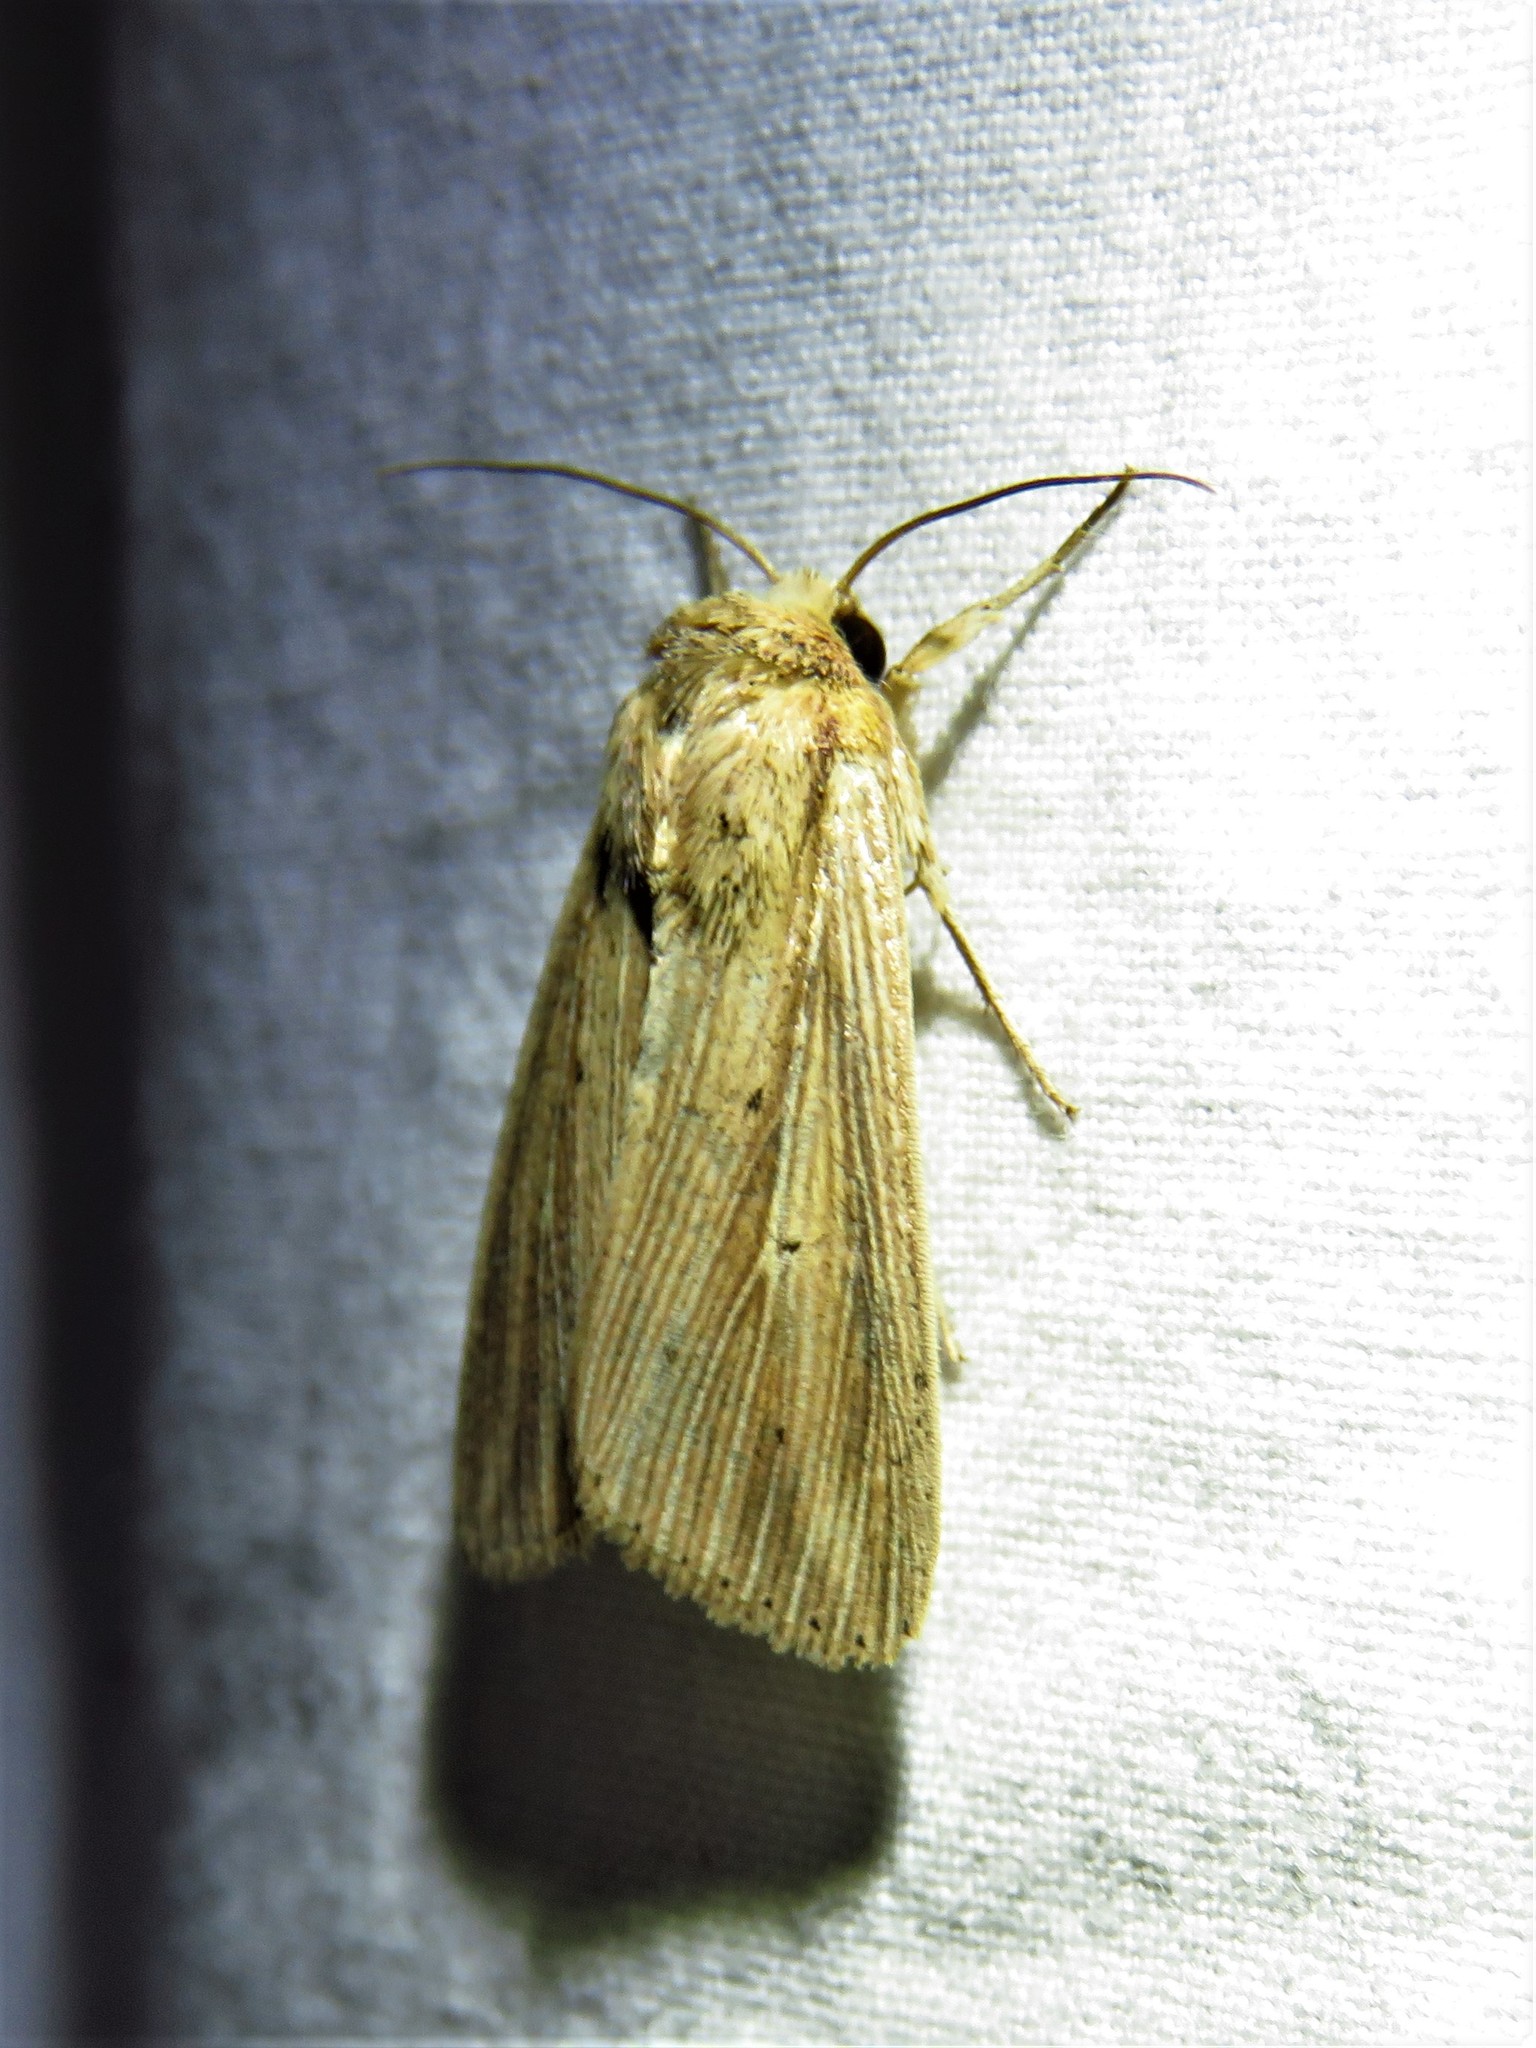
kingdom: Animalia
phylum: Arthropoda
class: Insecta
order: Lepidoptera
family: Noctuidae
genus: Leucania
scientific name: Leucania adjuta
